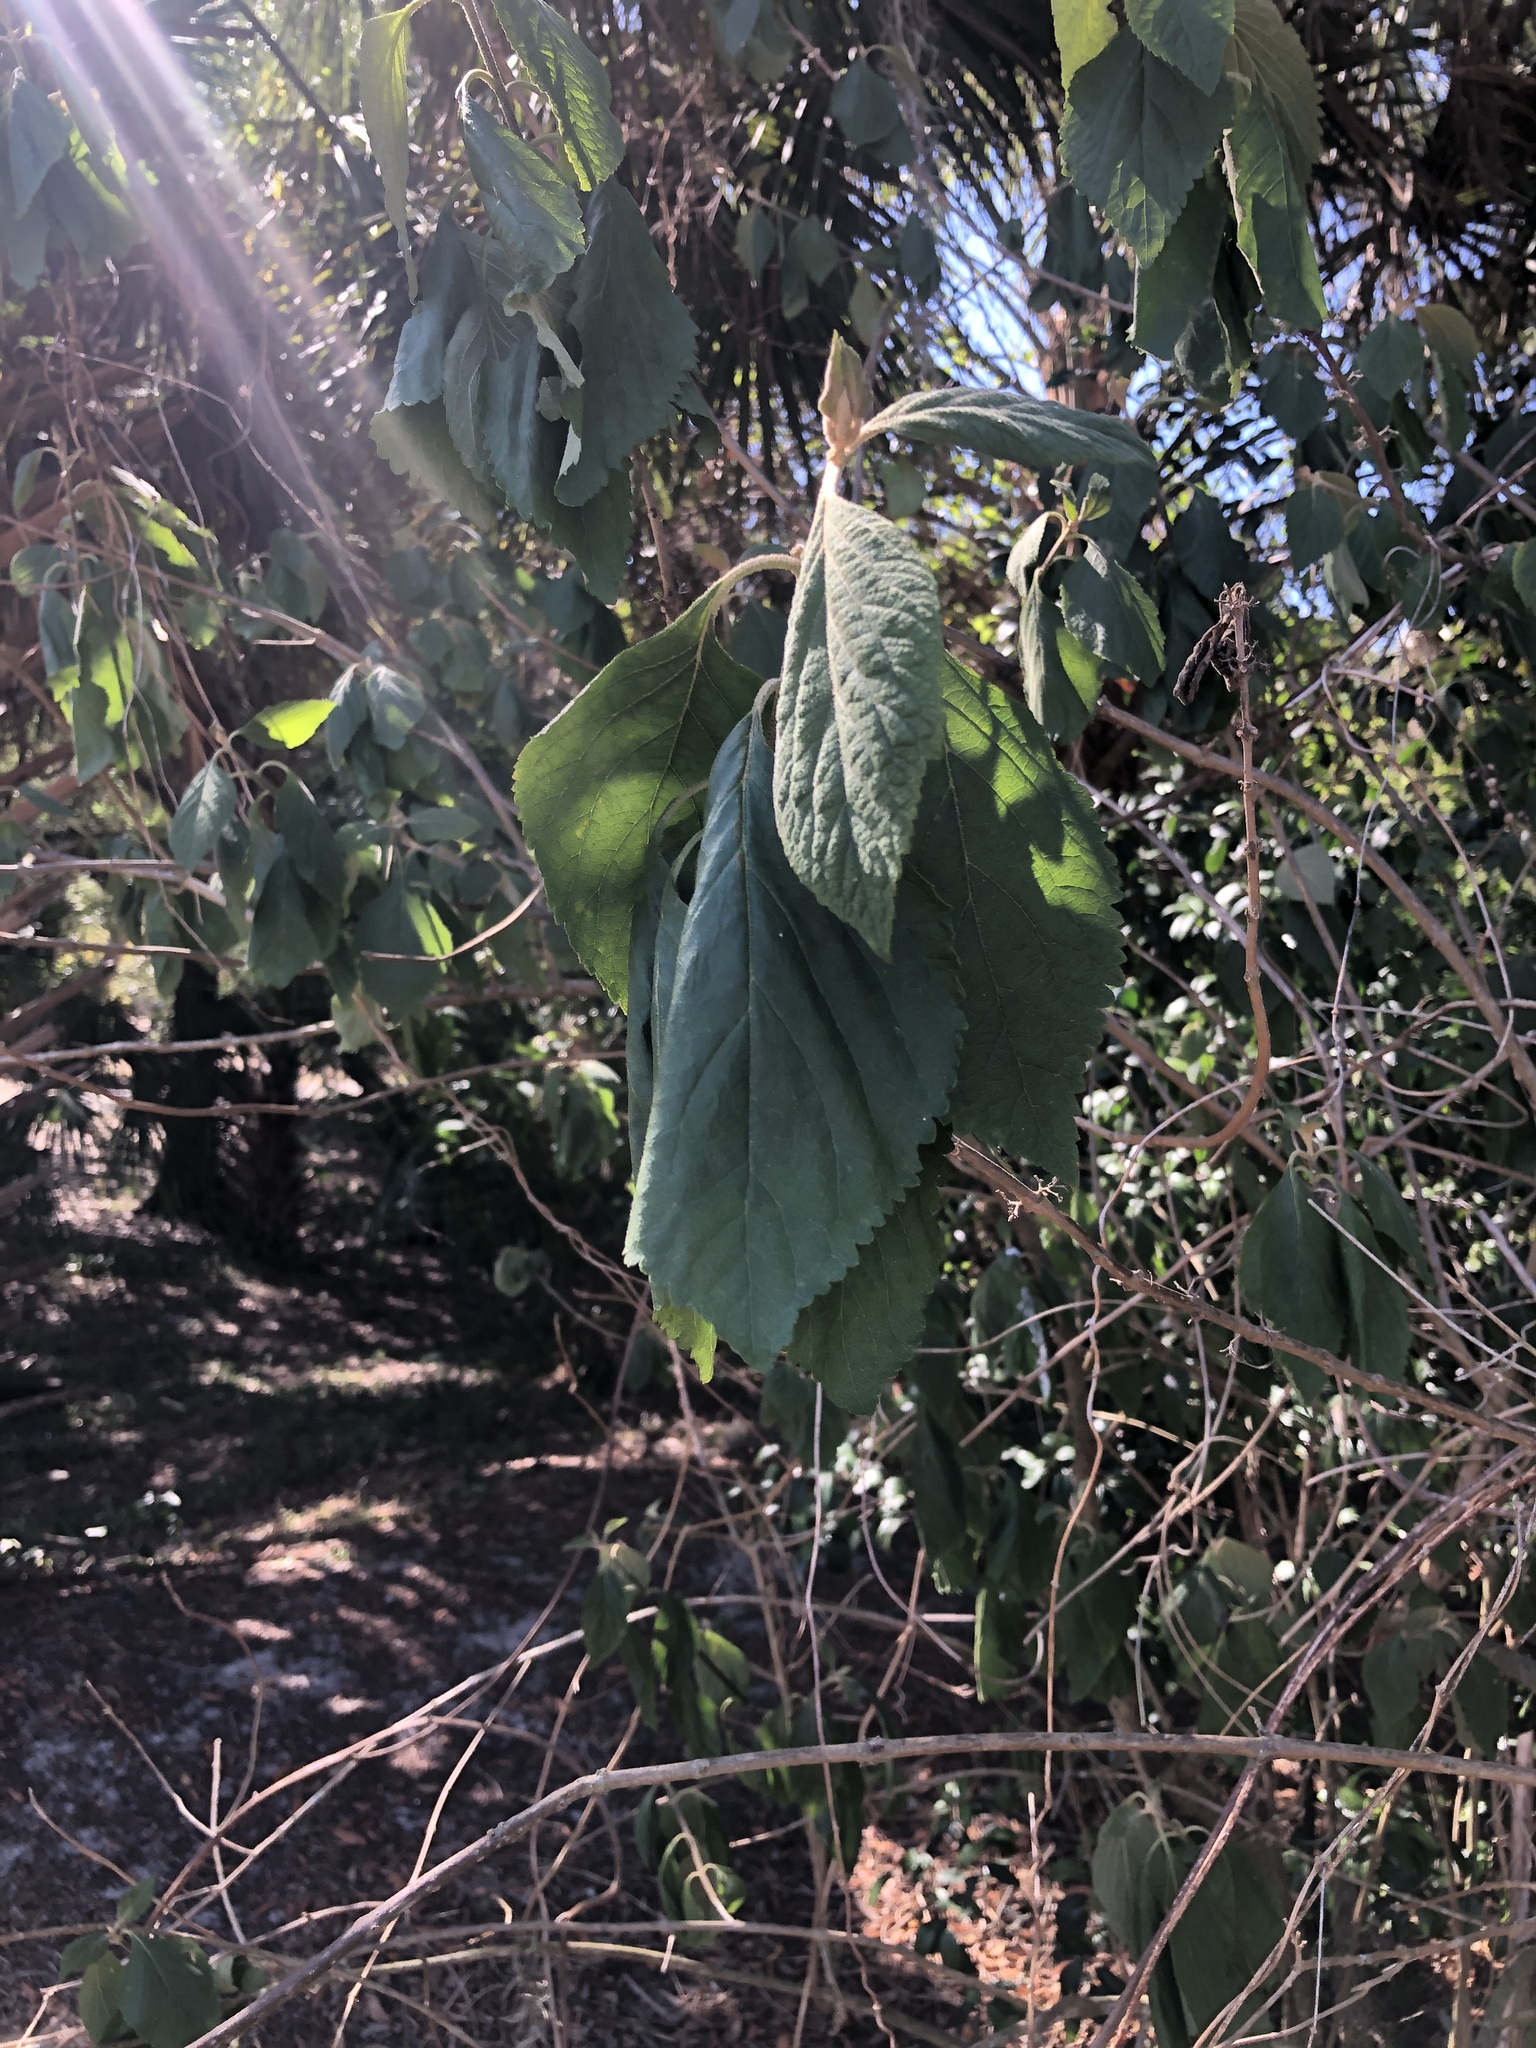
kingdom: Plantae
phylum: Tracheophyta
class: Magnoliopsida
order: Lamiales
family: Lamiaceae
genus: Callicarpa
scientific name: Callicarpa americana
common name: American beautyberry
